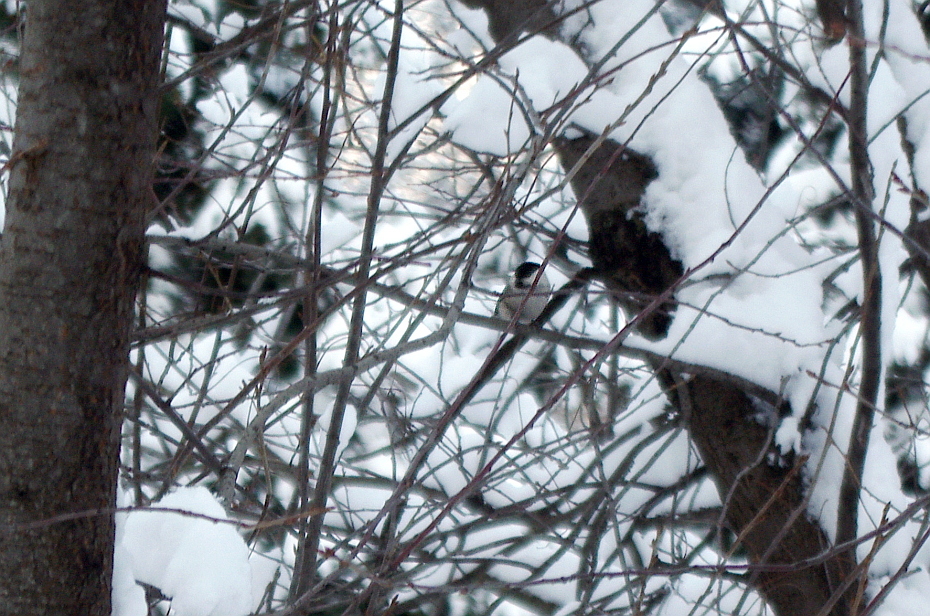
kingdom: Animalia
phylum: Chordata
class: Aves
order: Passeriformes
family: Paridae
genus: Poecile
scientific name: Poecile montanus
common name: Willow tit
